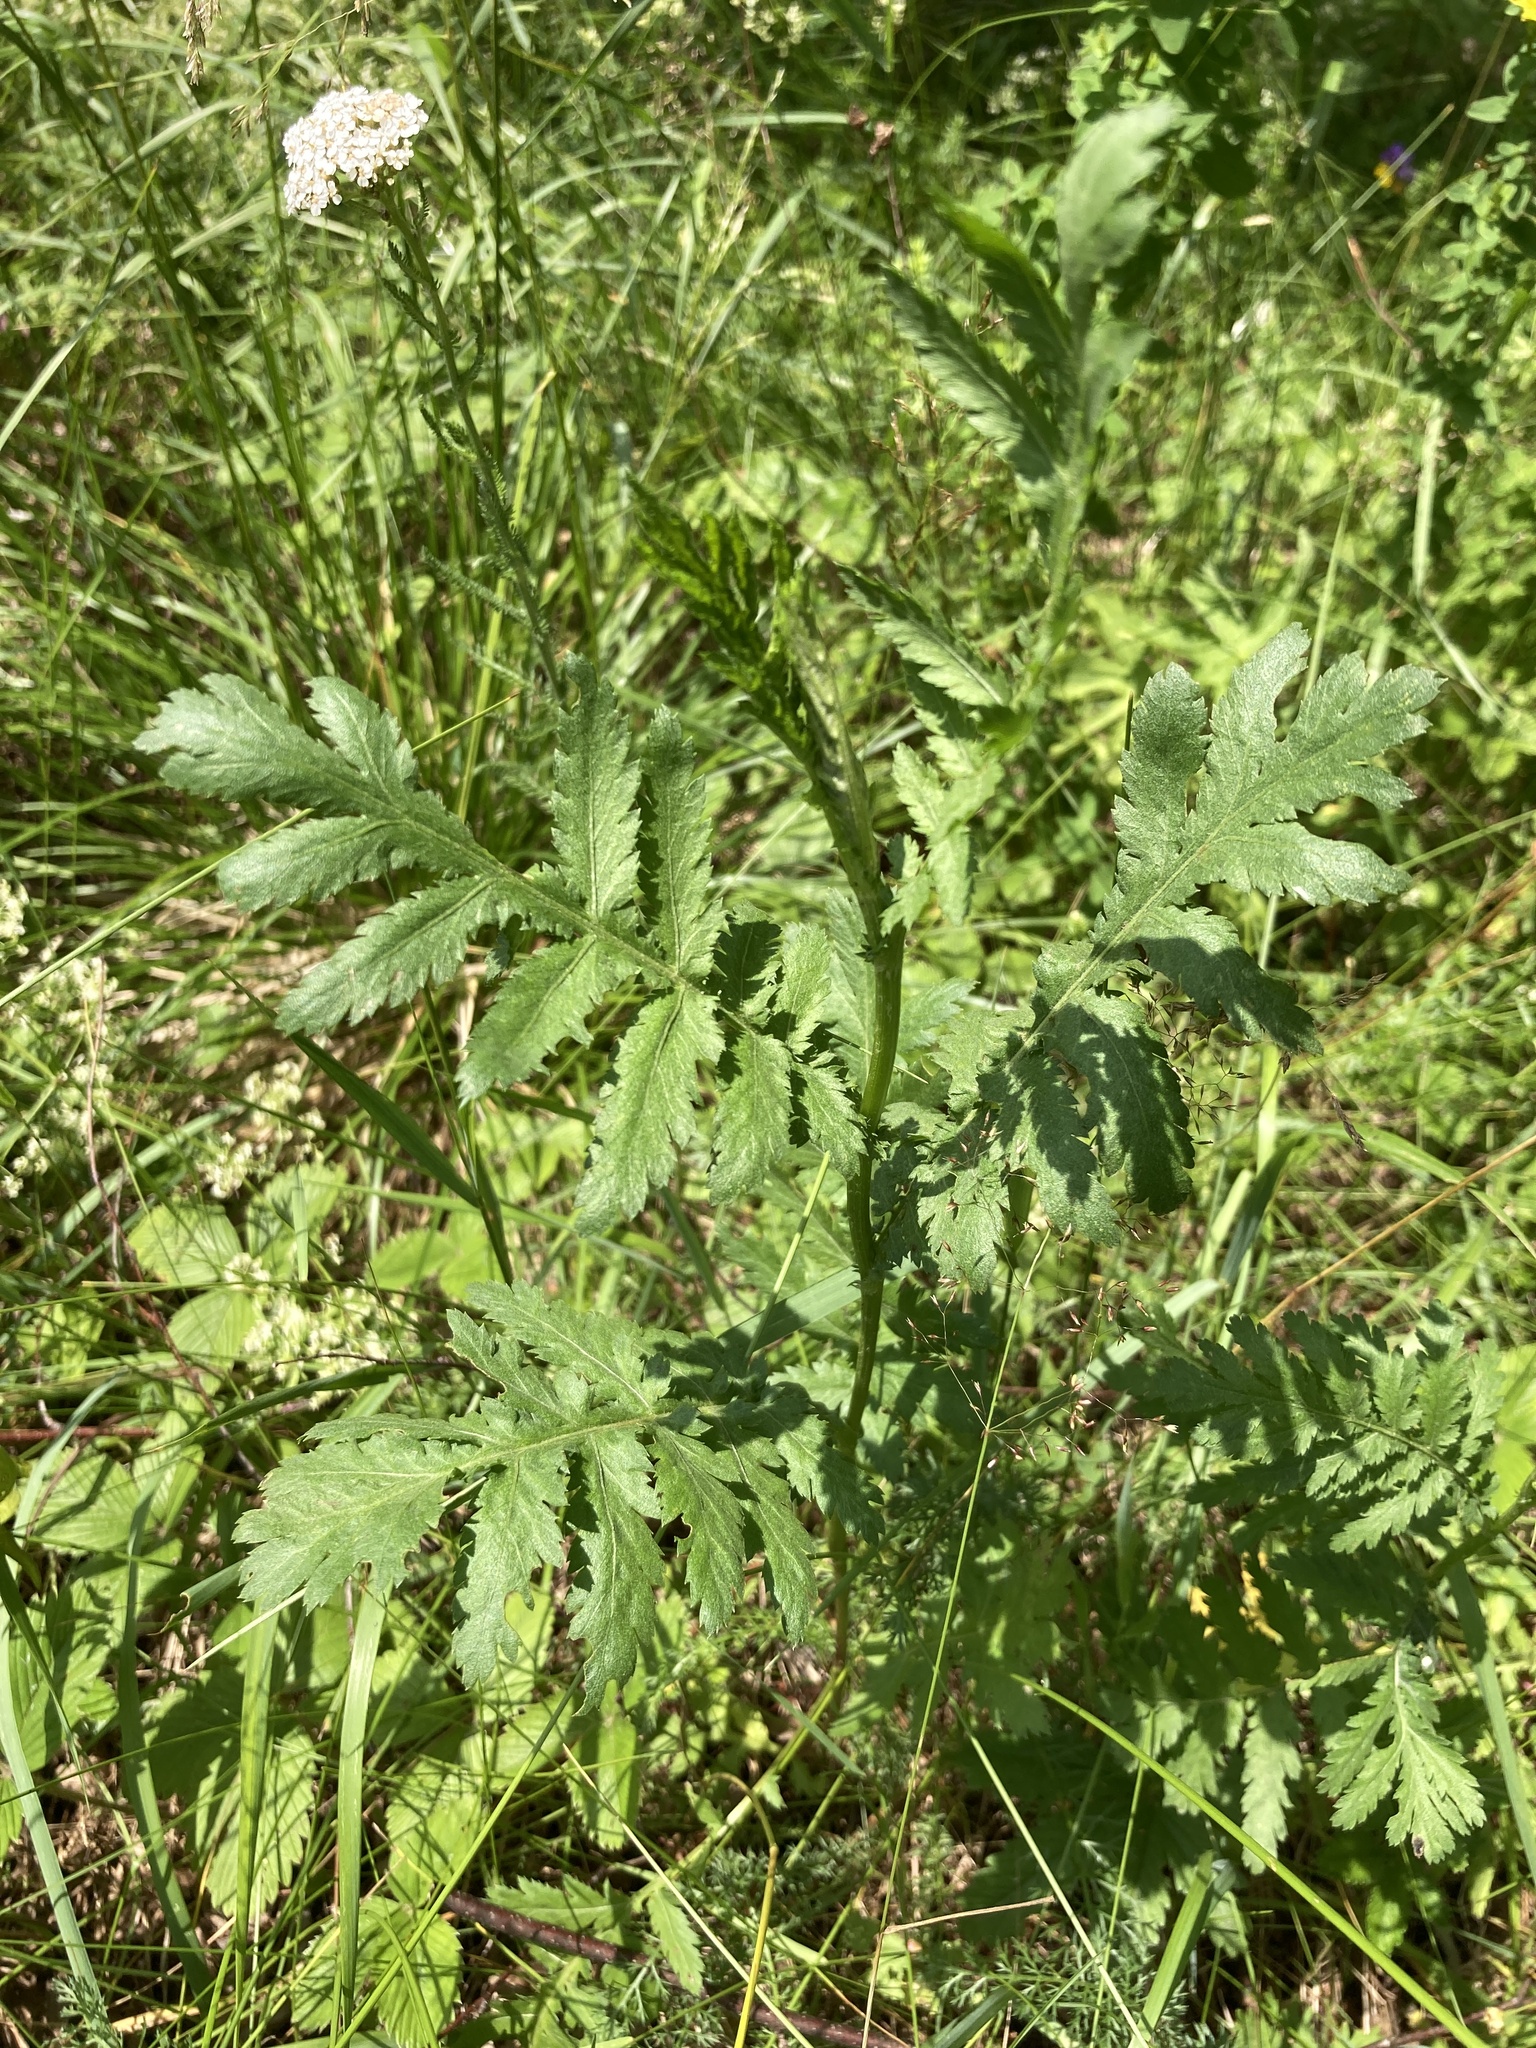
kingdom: Plantae
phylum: Tracheophyta
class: Magnoliopsida
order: Asterales
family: Asteraceae
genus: Tanacetum
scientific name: Tanacetum vulgare
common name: Common tansy
